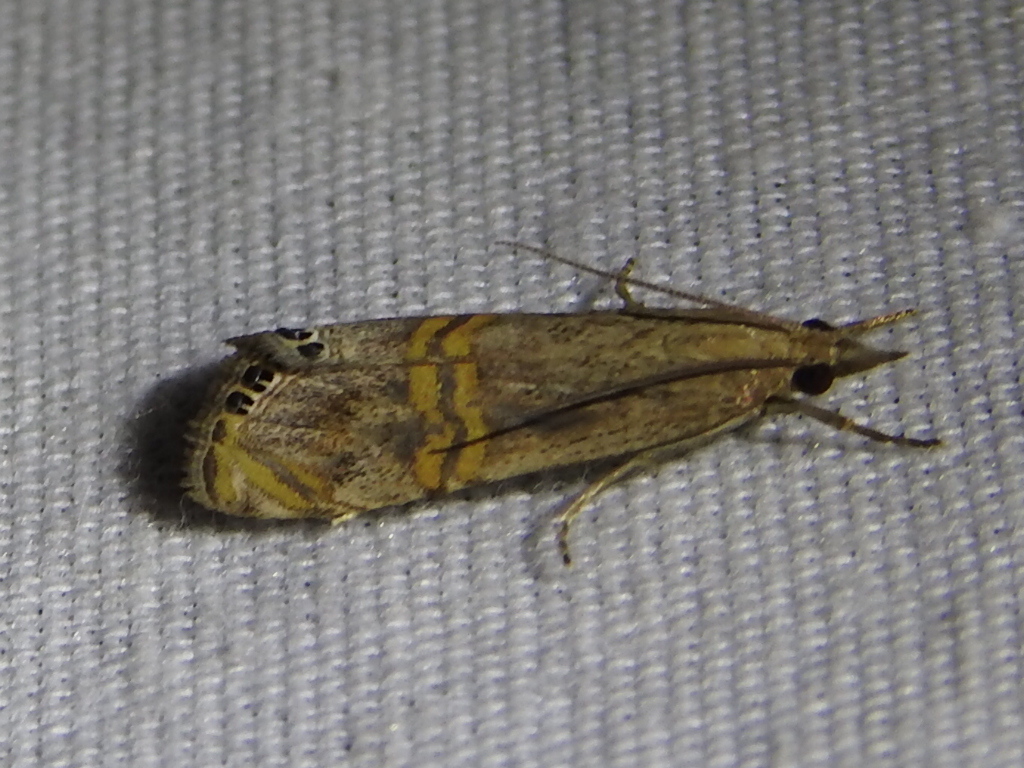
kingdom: Animalia
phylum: Arthropoda
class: Insecta
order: Lepidoptera
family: Crambidae
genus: Euchromius
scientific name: Euchromius ocellea
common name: Necklace veneer moth
